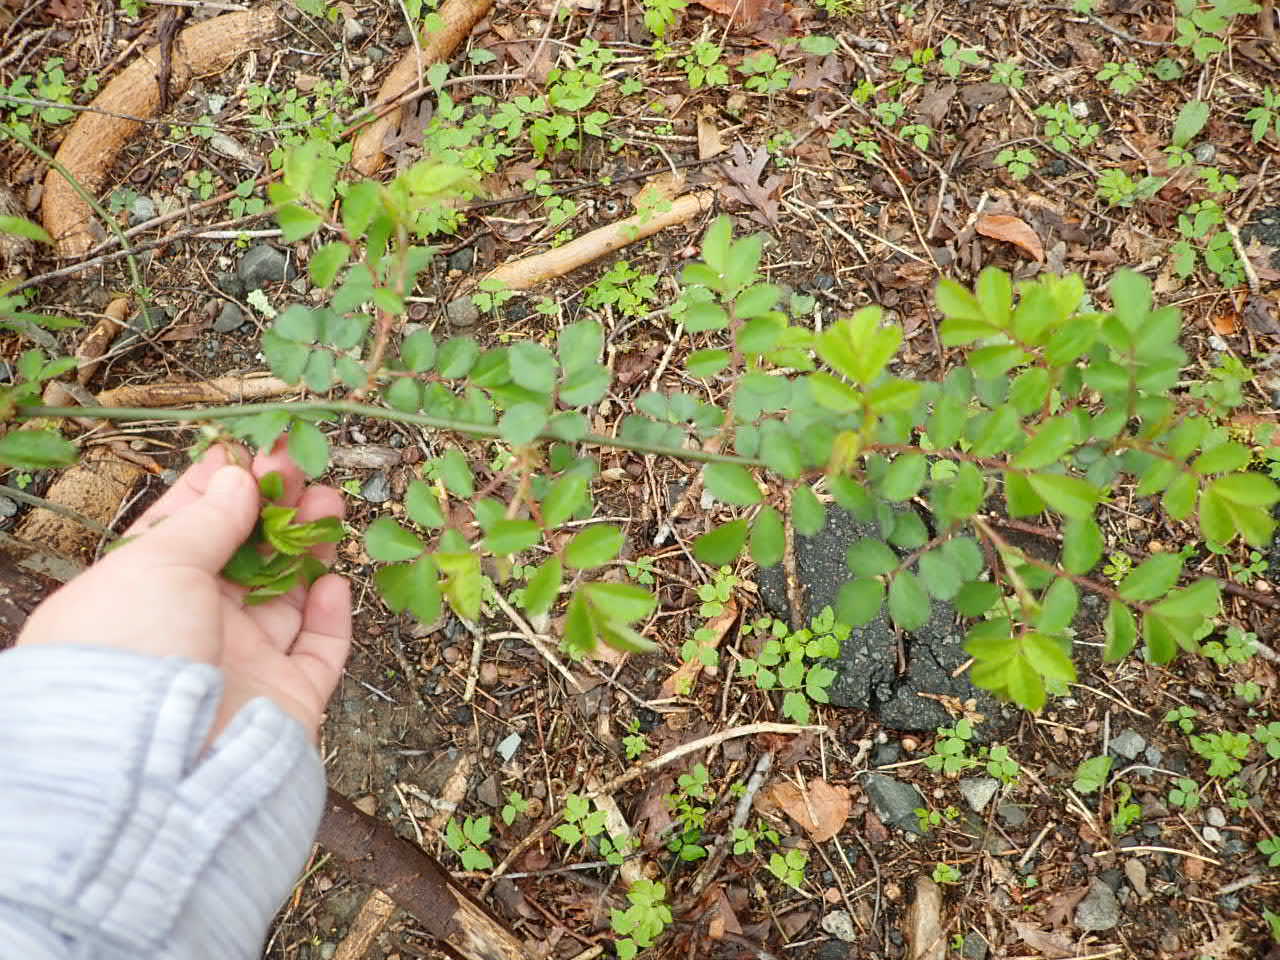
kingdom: Plantae
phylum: Tracheophyta
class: Magnoliopsida
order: Rosales
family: Rosaceae
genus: Rosa
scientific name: Rosa multiflora
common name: Multiflora rose
